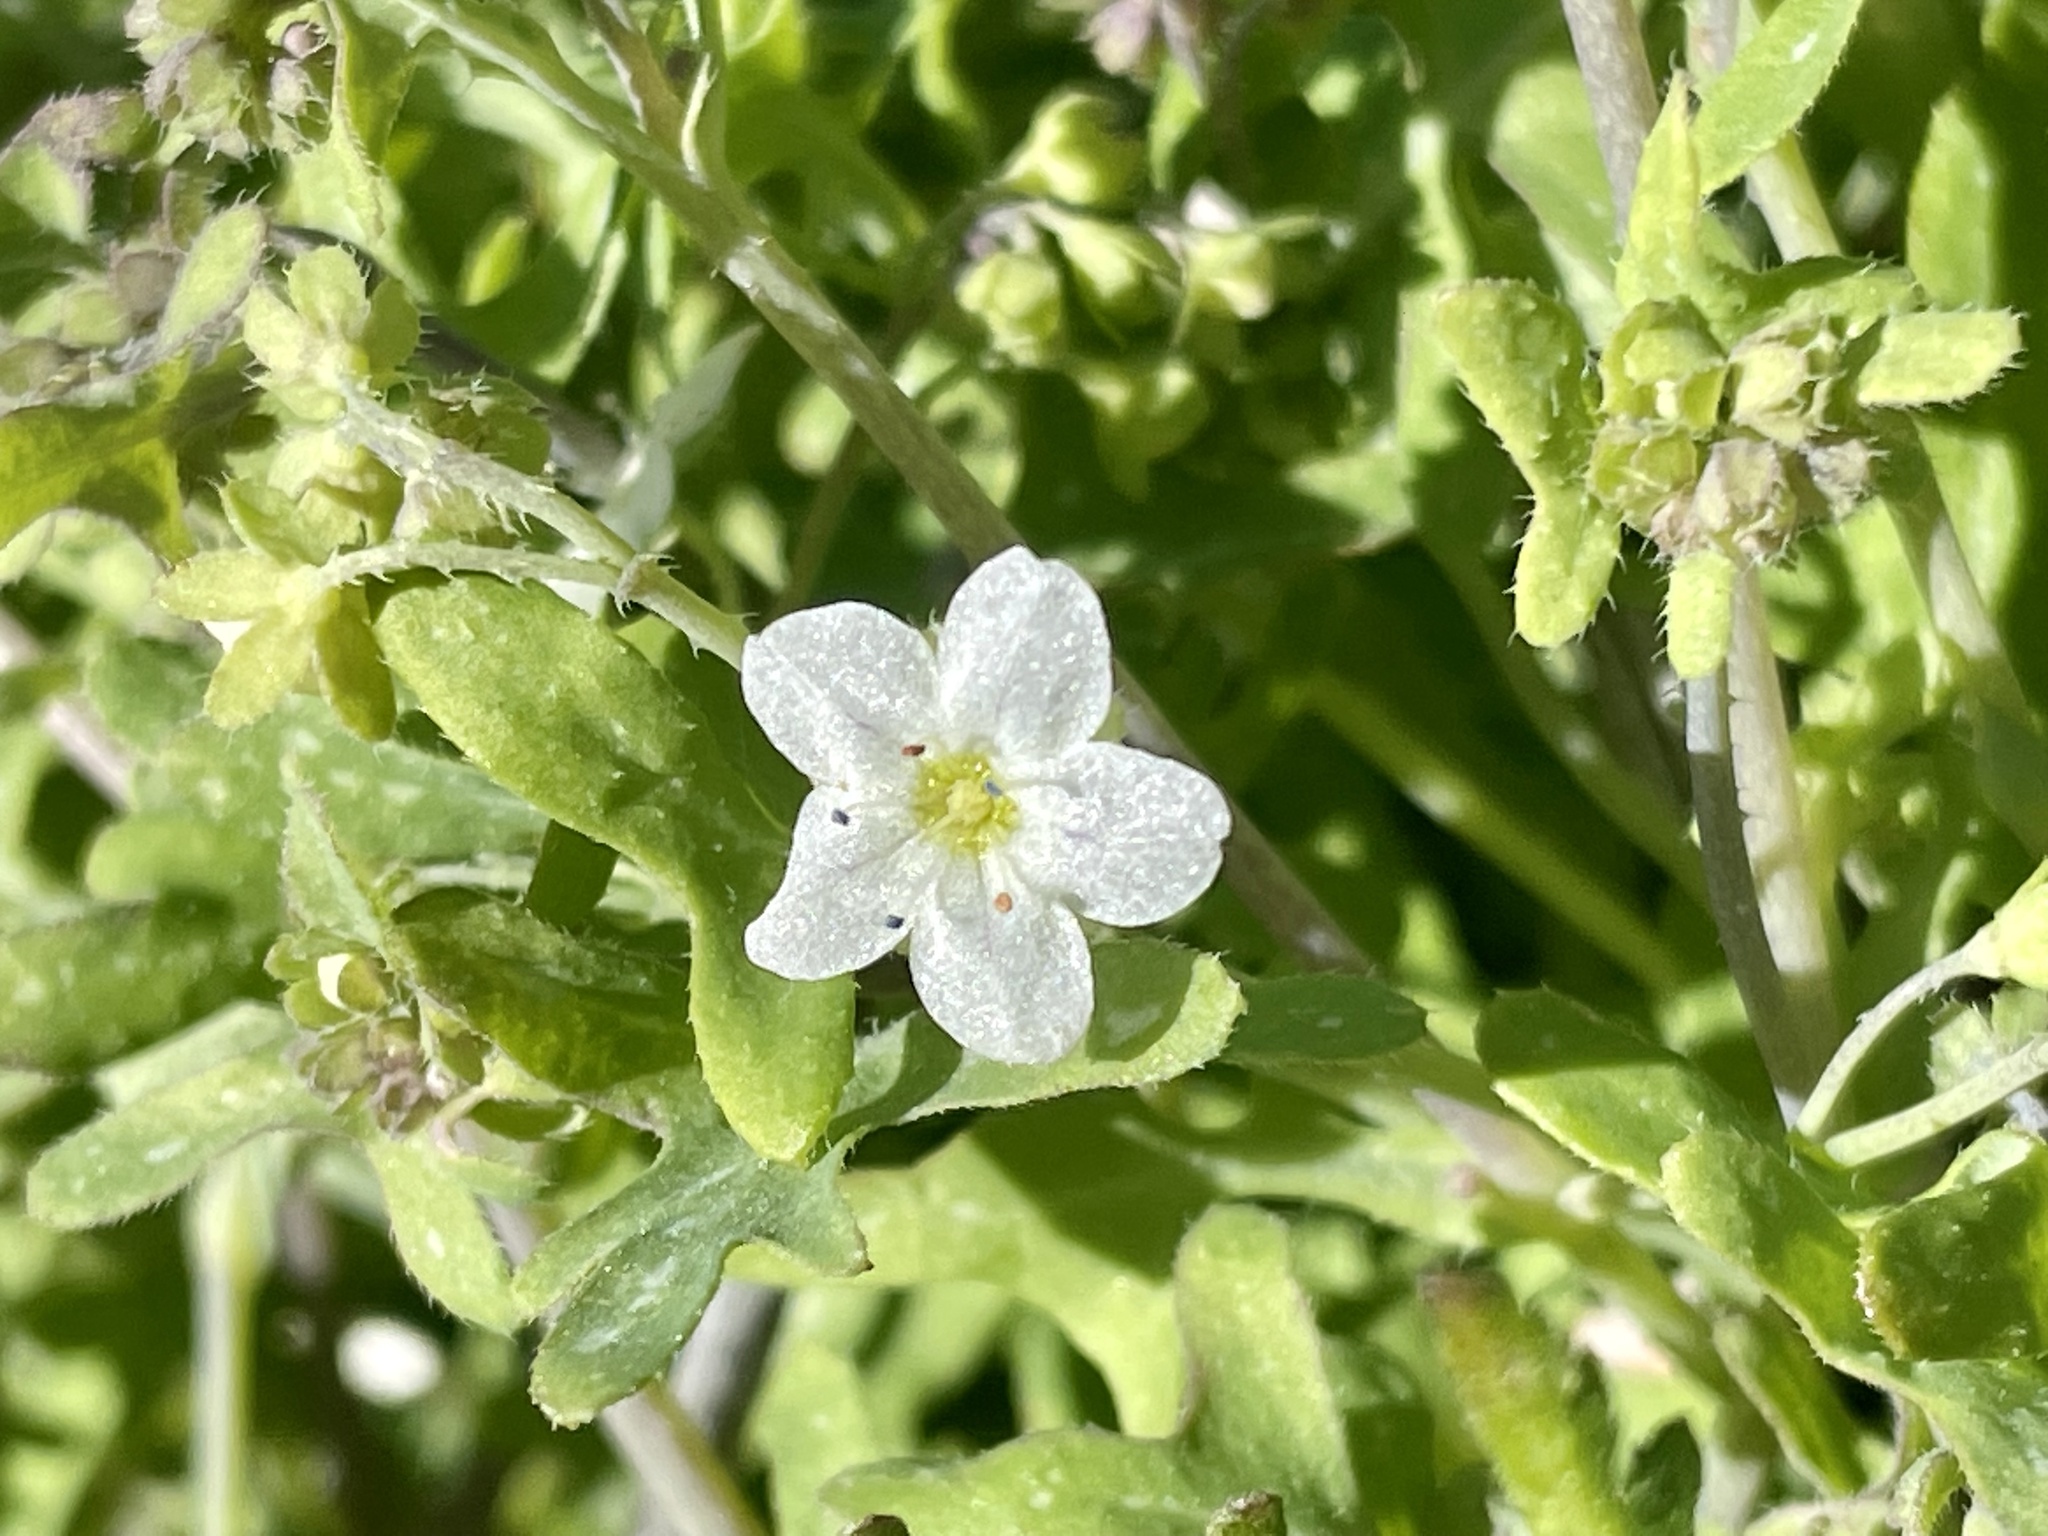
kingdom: Plantae
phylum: Tracheophyta
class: Magnoliopsida
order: Boraginales
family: Hydrophyllaceae
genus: Pholistoma
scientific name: Pholistoma membranaceum
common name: White fiesta-flower
